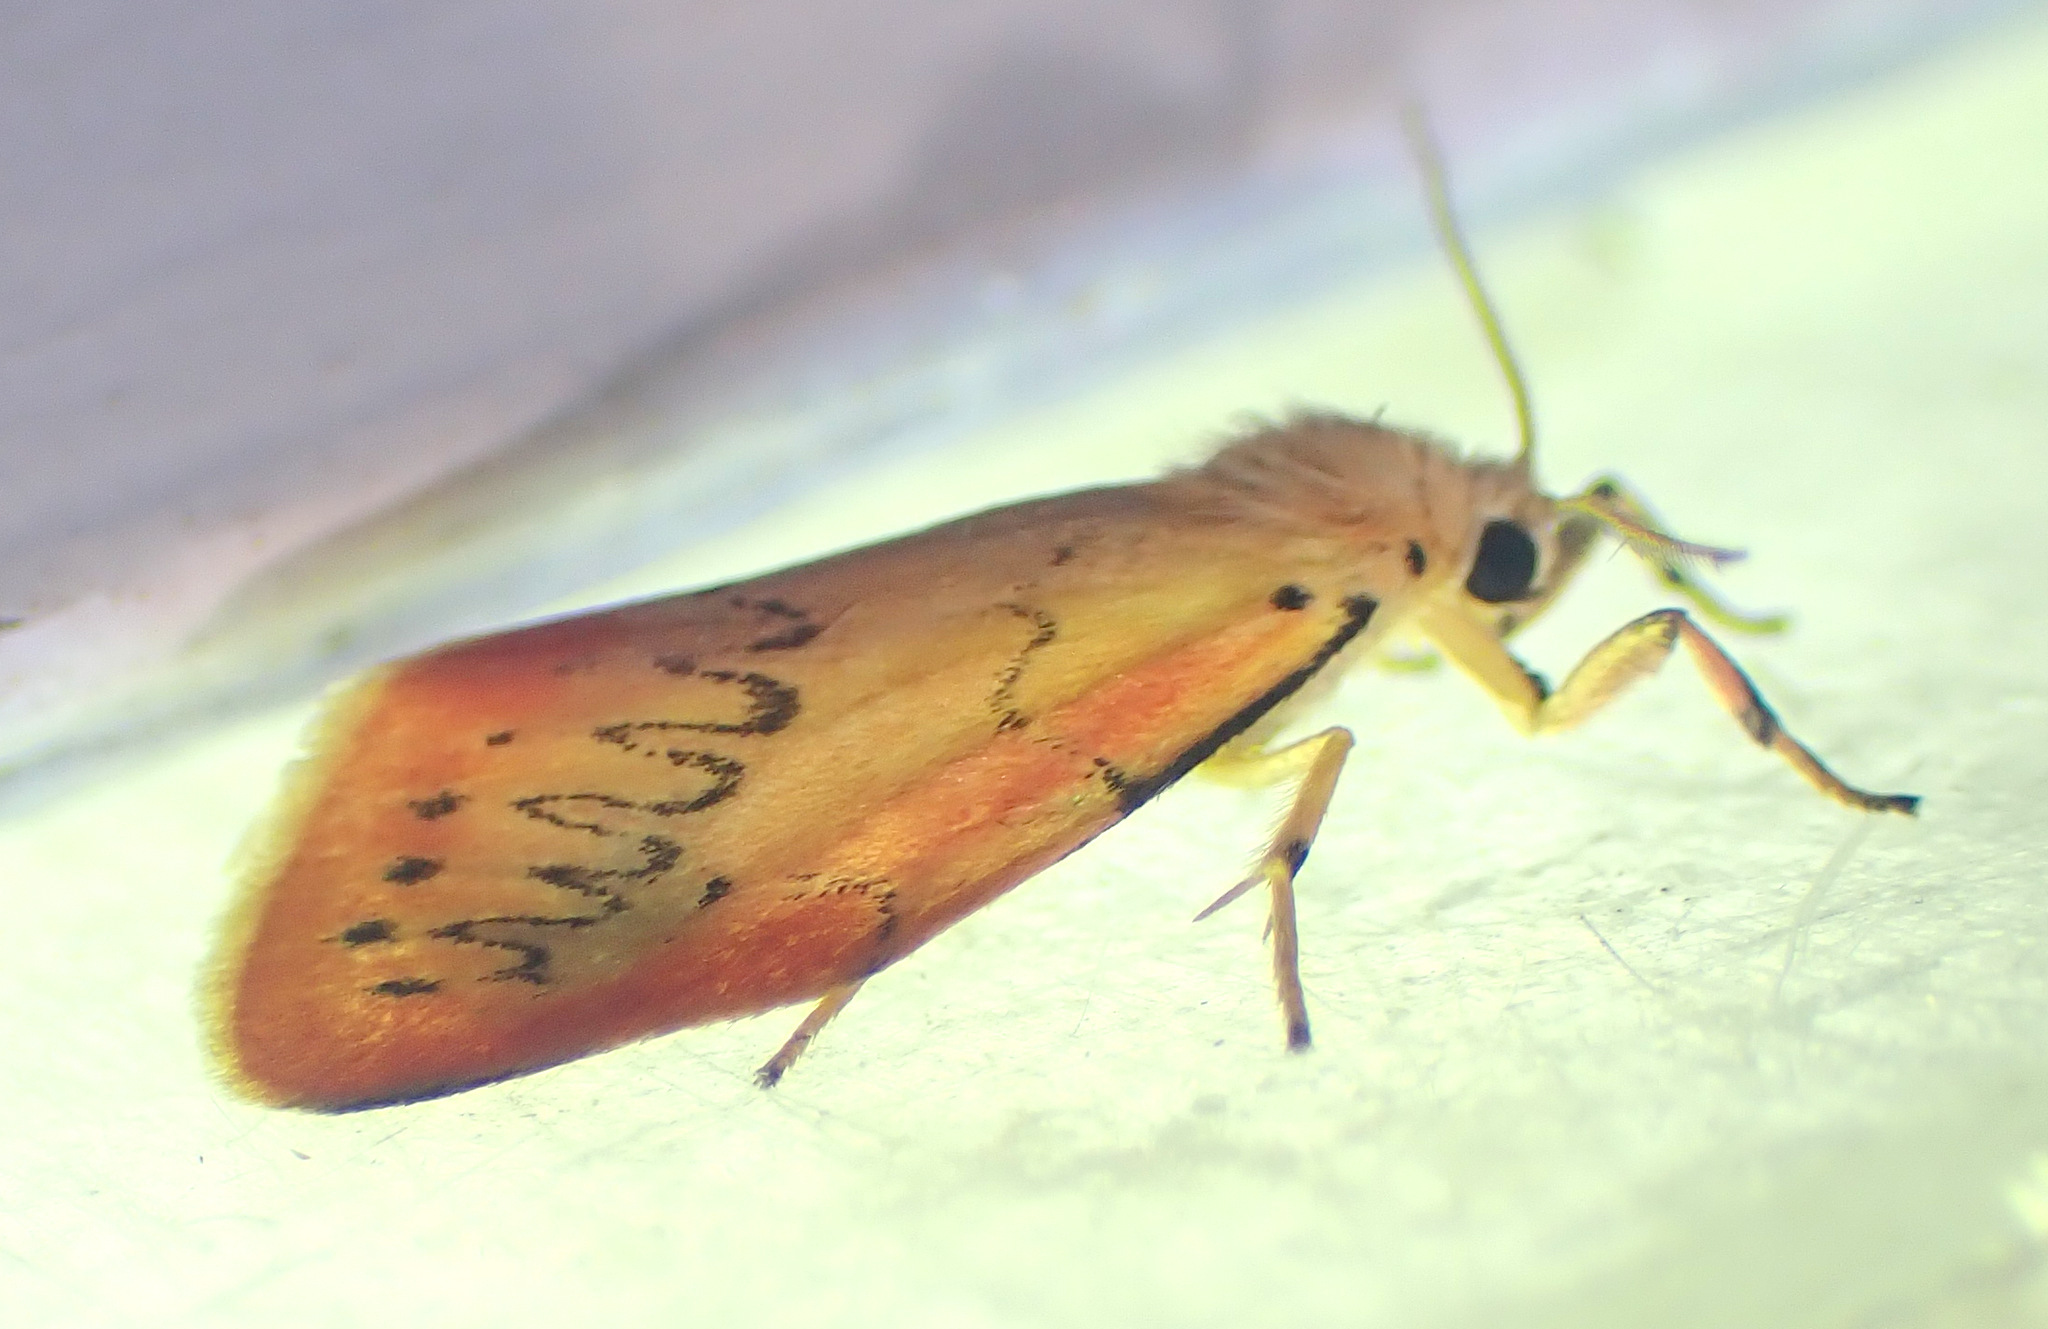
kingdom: Animalia
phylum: Arthropoda
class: Insecta
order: Lepidoptera
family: Erebidae
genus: Miltochrista
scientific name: Miltochrista miniata
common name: Rosy footman
